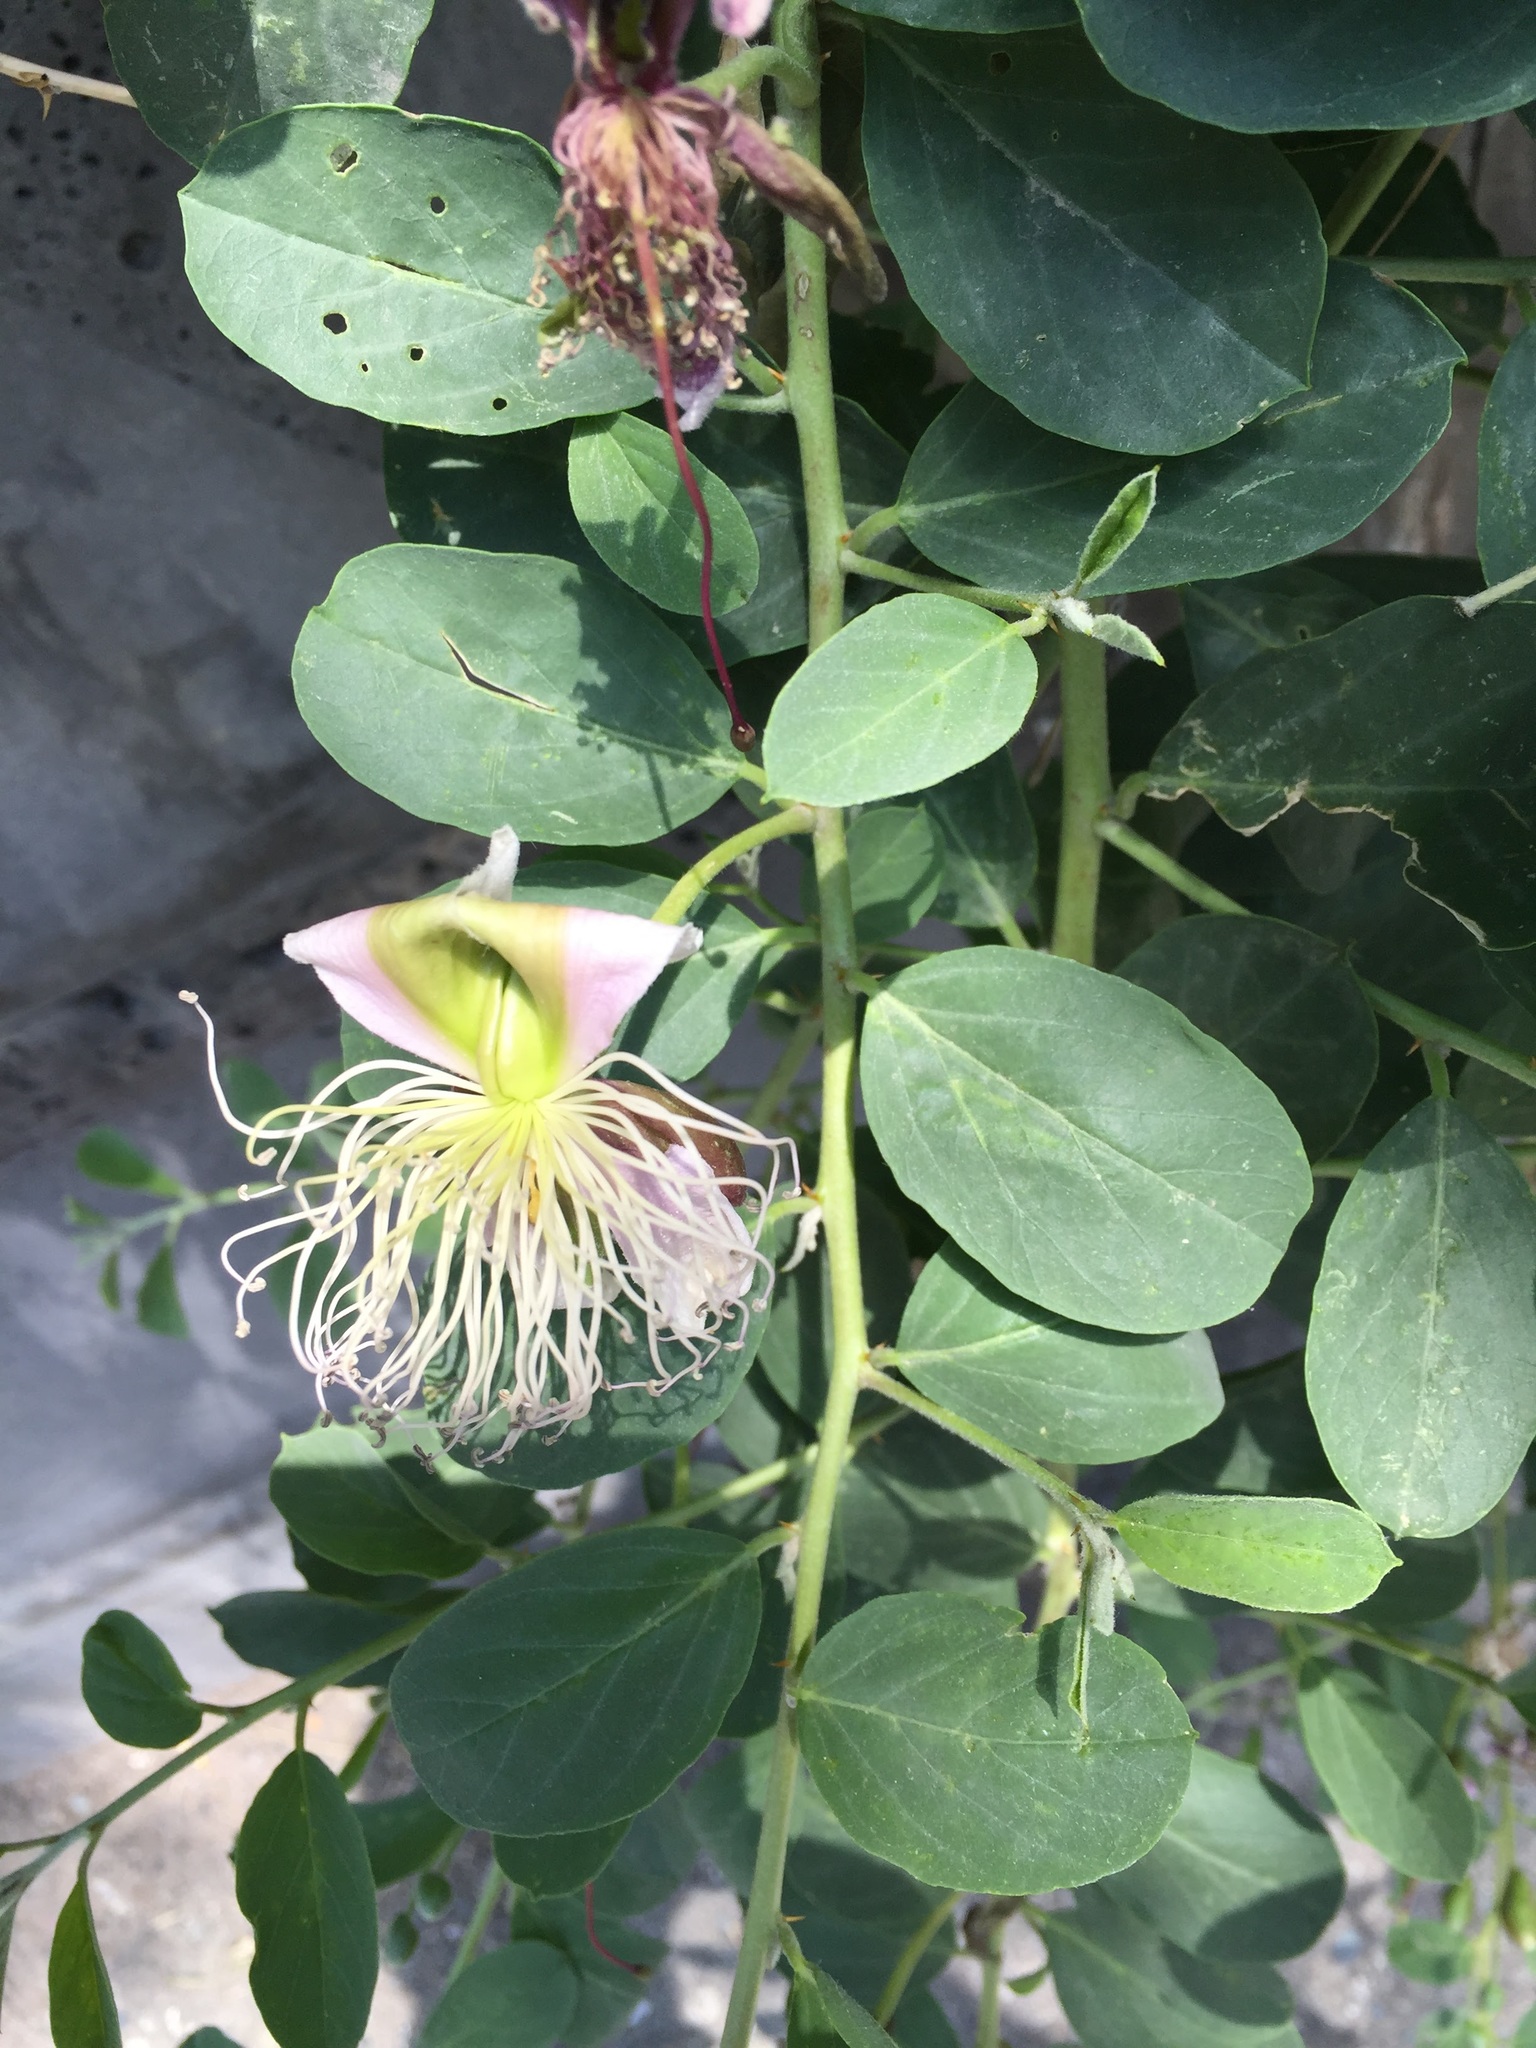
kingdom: Plantae
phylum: Tracheophyta
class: Magnoliopsida
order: Brassicales
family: Capparaceae
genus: Capparis
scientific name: Capparis spinosa
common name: Caper
